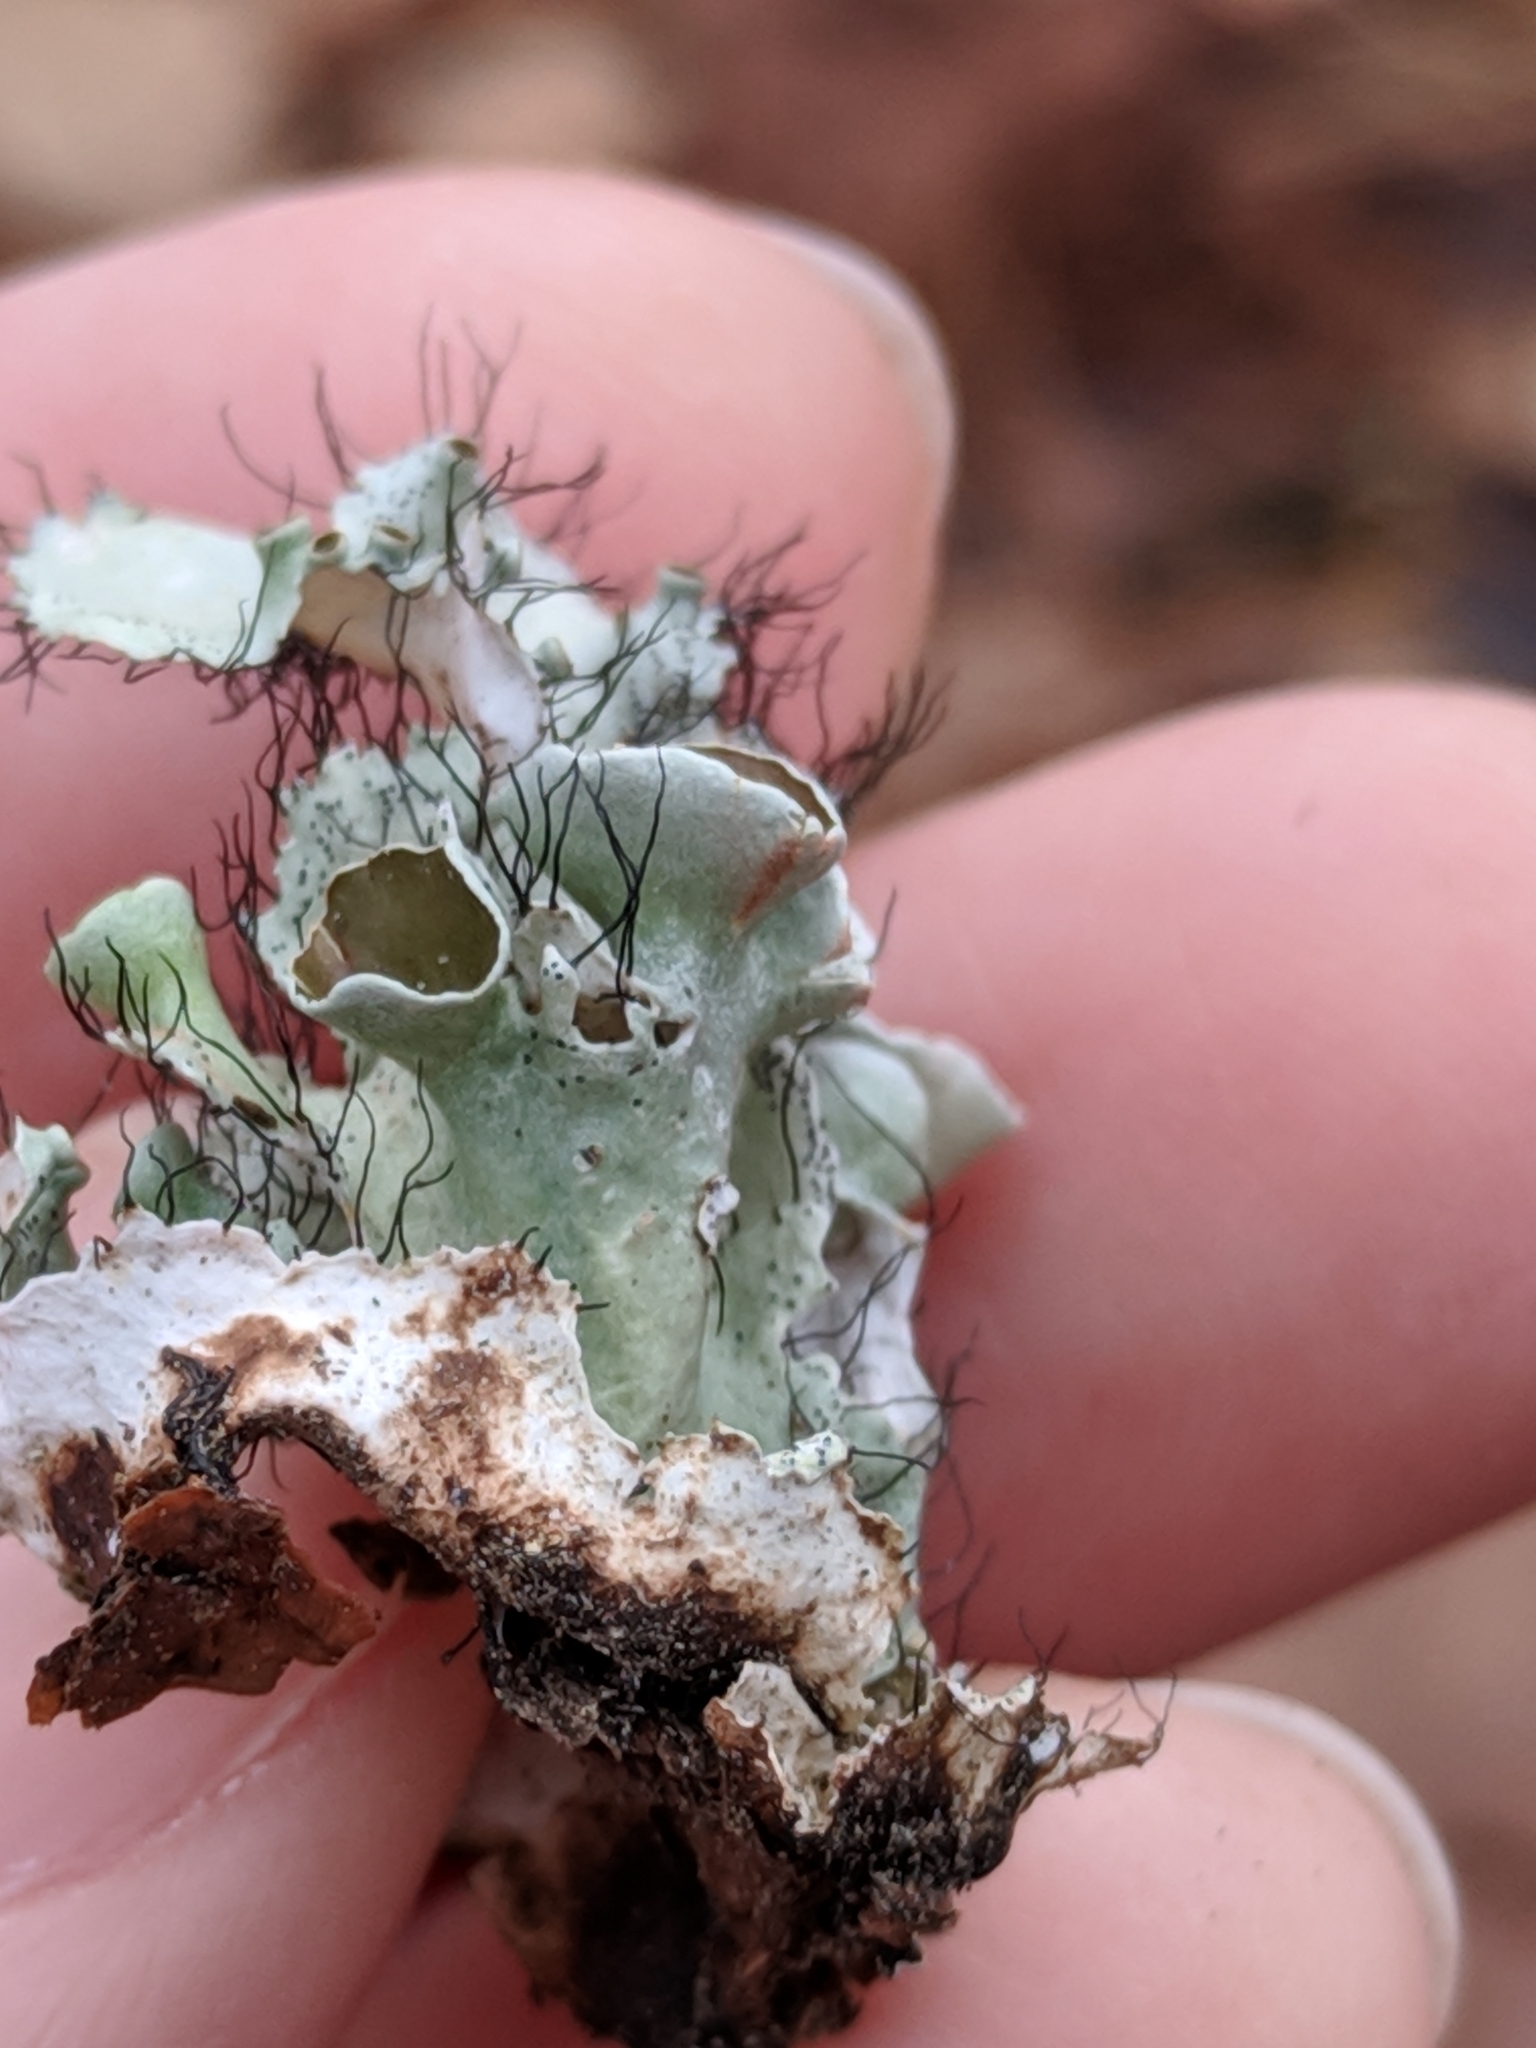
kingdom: Fungi
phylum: Ascomycota
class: Lecanoromycetes
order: Lecanorales
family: Parmeliaceae
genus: Parmotrema
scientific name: Parmotrema perforatum
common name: Perforated ruffle lichen
